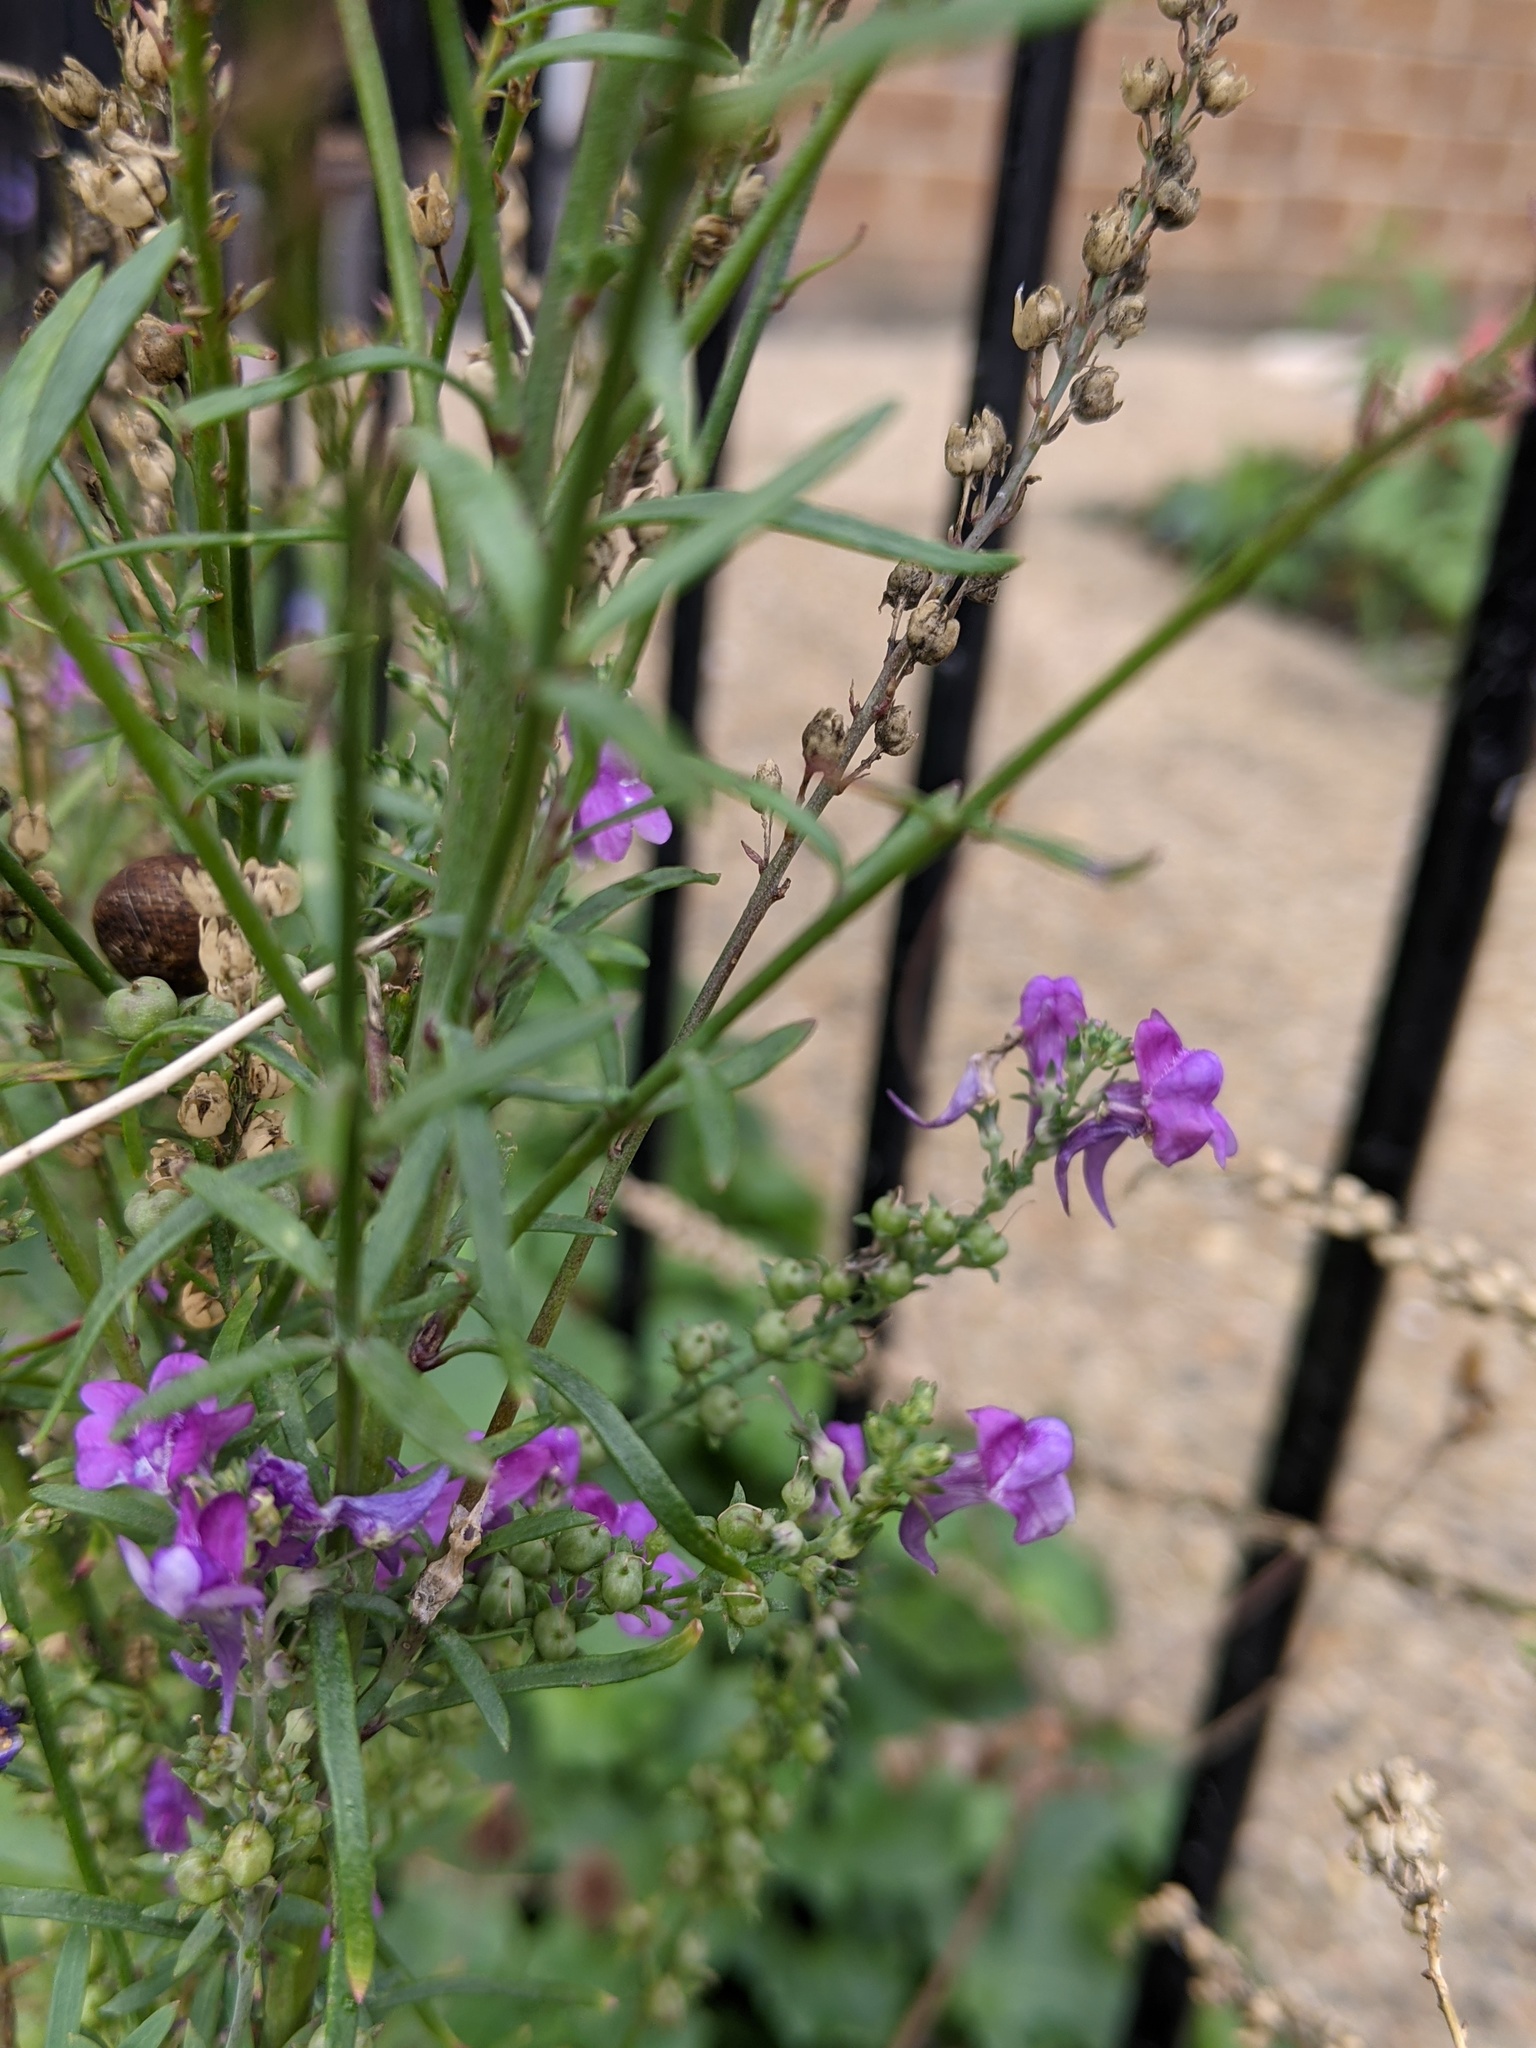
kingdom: Plantae
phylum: Tracheophyta
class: Magnoliopsida
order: Lamiales
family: Plantaginaceae
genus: Linaria
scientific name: Linaria purpurea
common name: Purple toadflax
